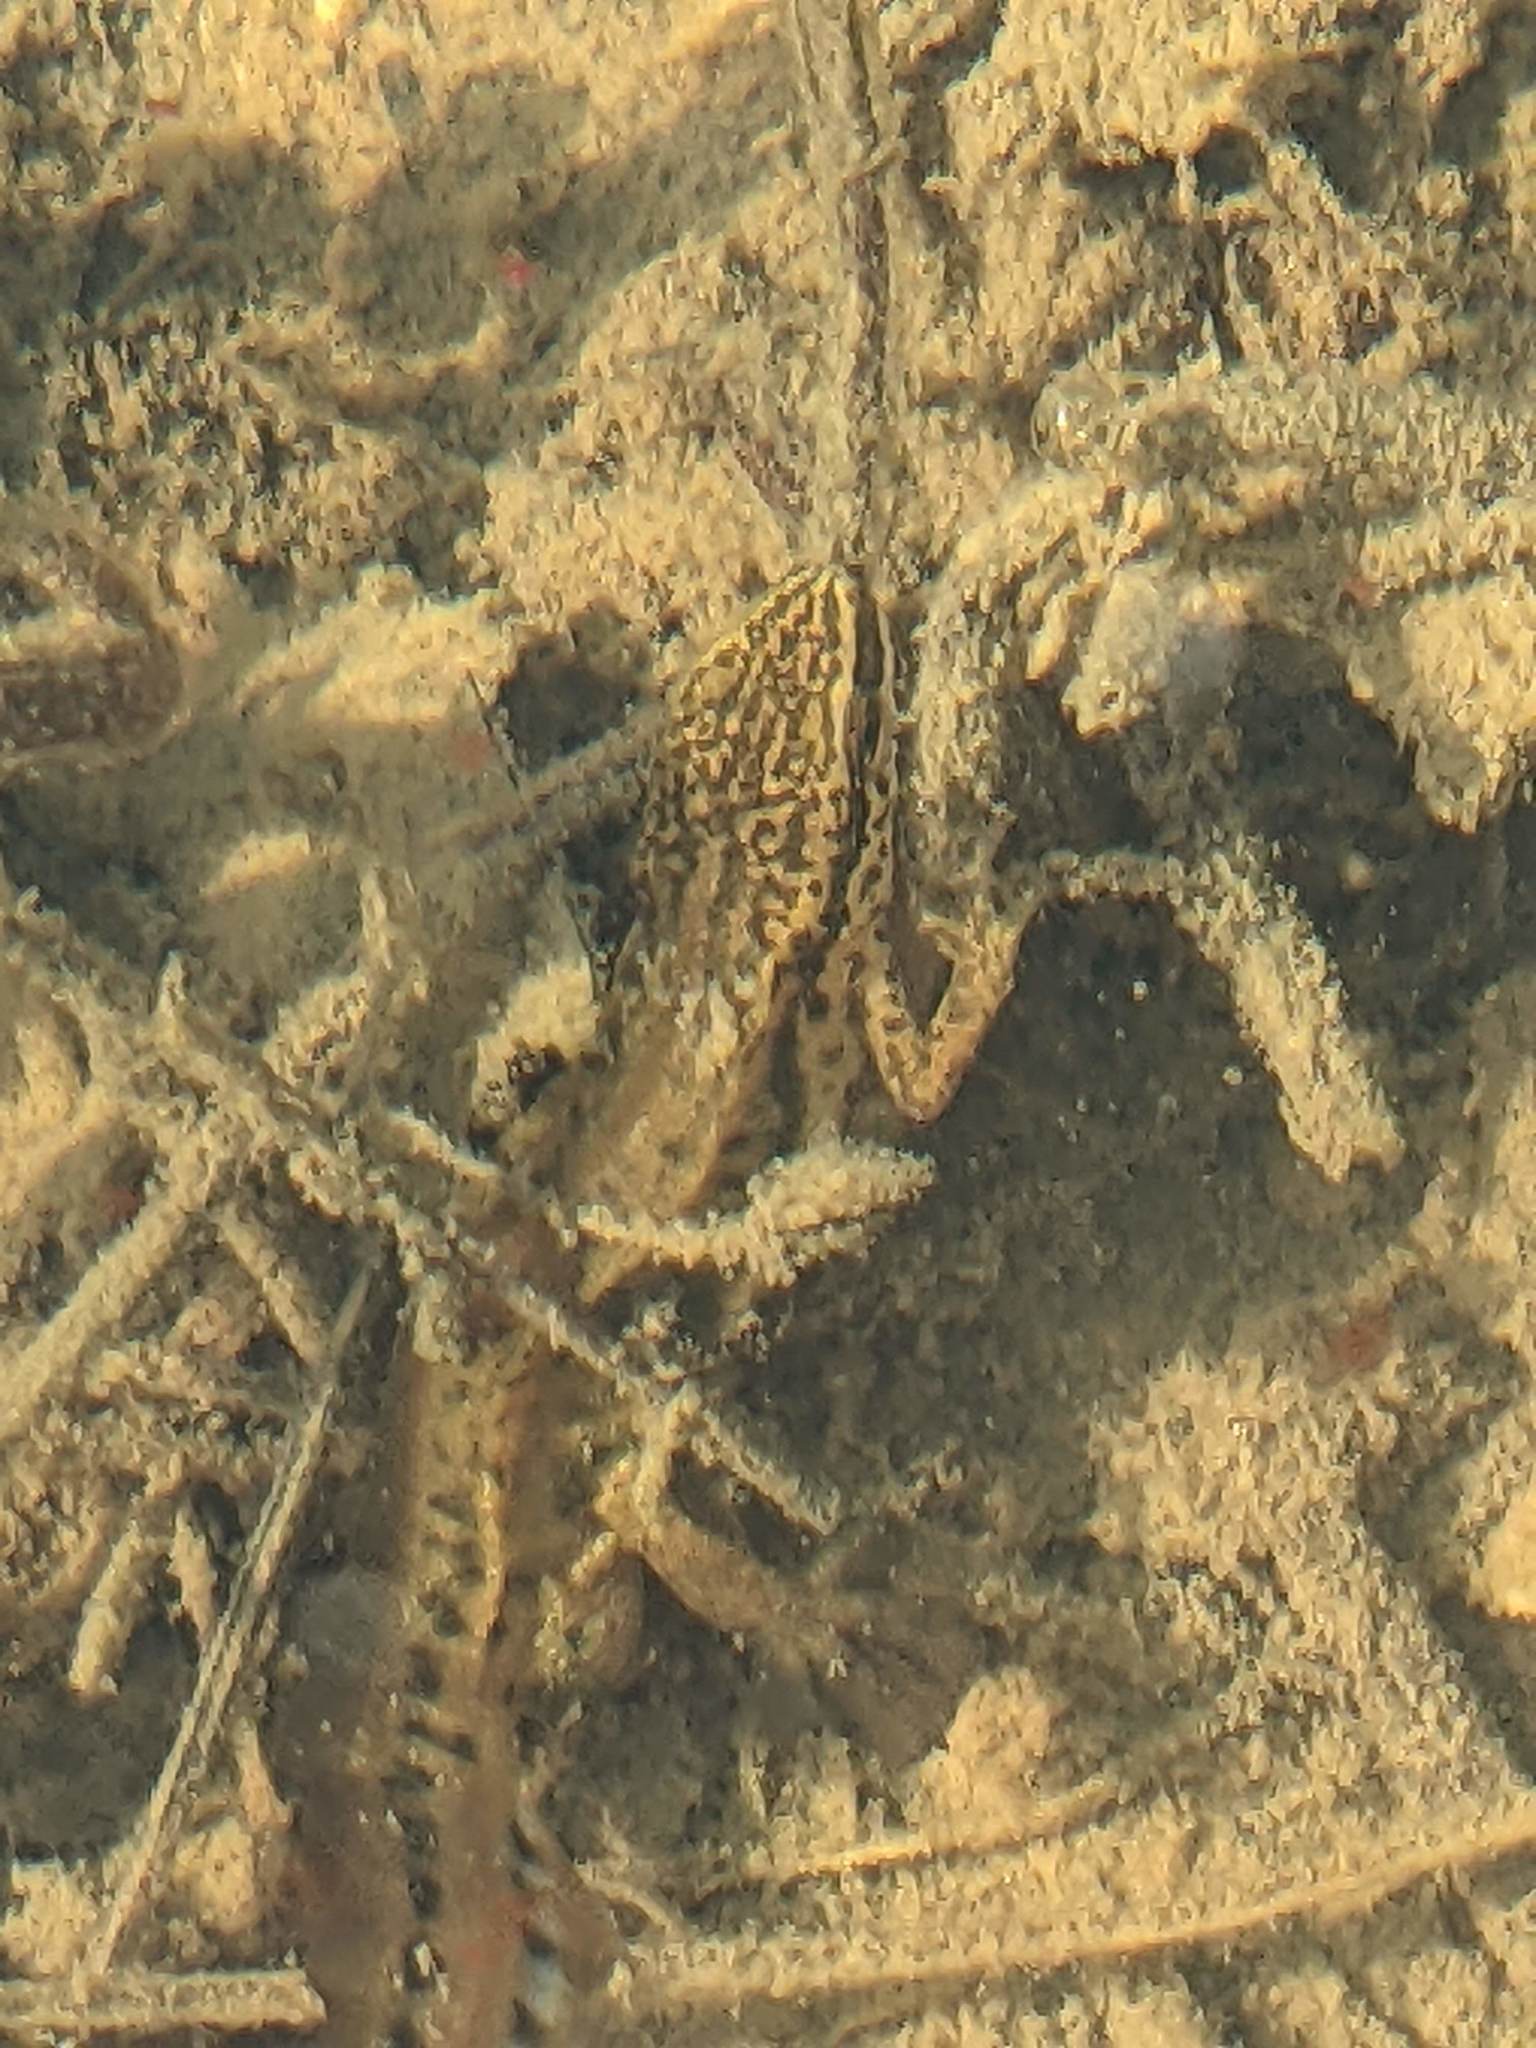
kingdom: Animalia
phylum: Chordata
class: Amphibia
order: Caudata
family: Salamandridae
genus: Lissotriton
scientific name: Lissotriton helveticus
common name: Palmate newt
